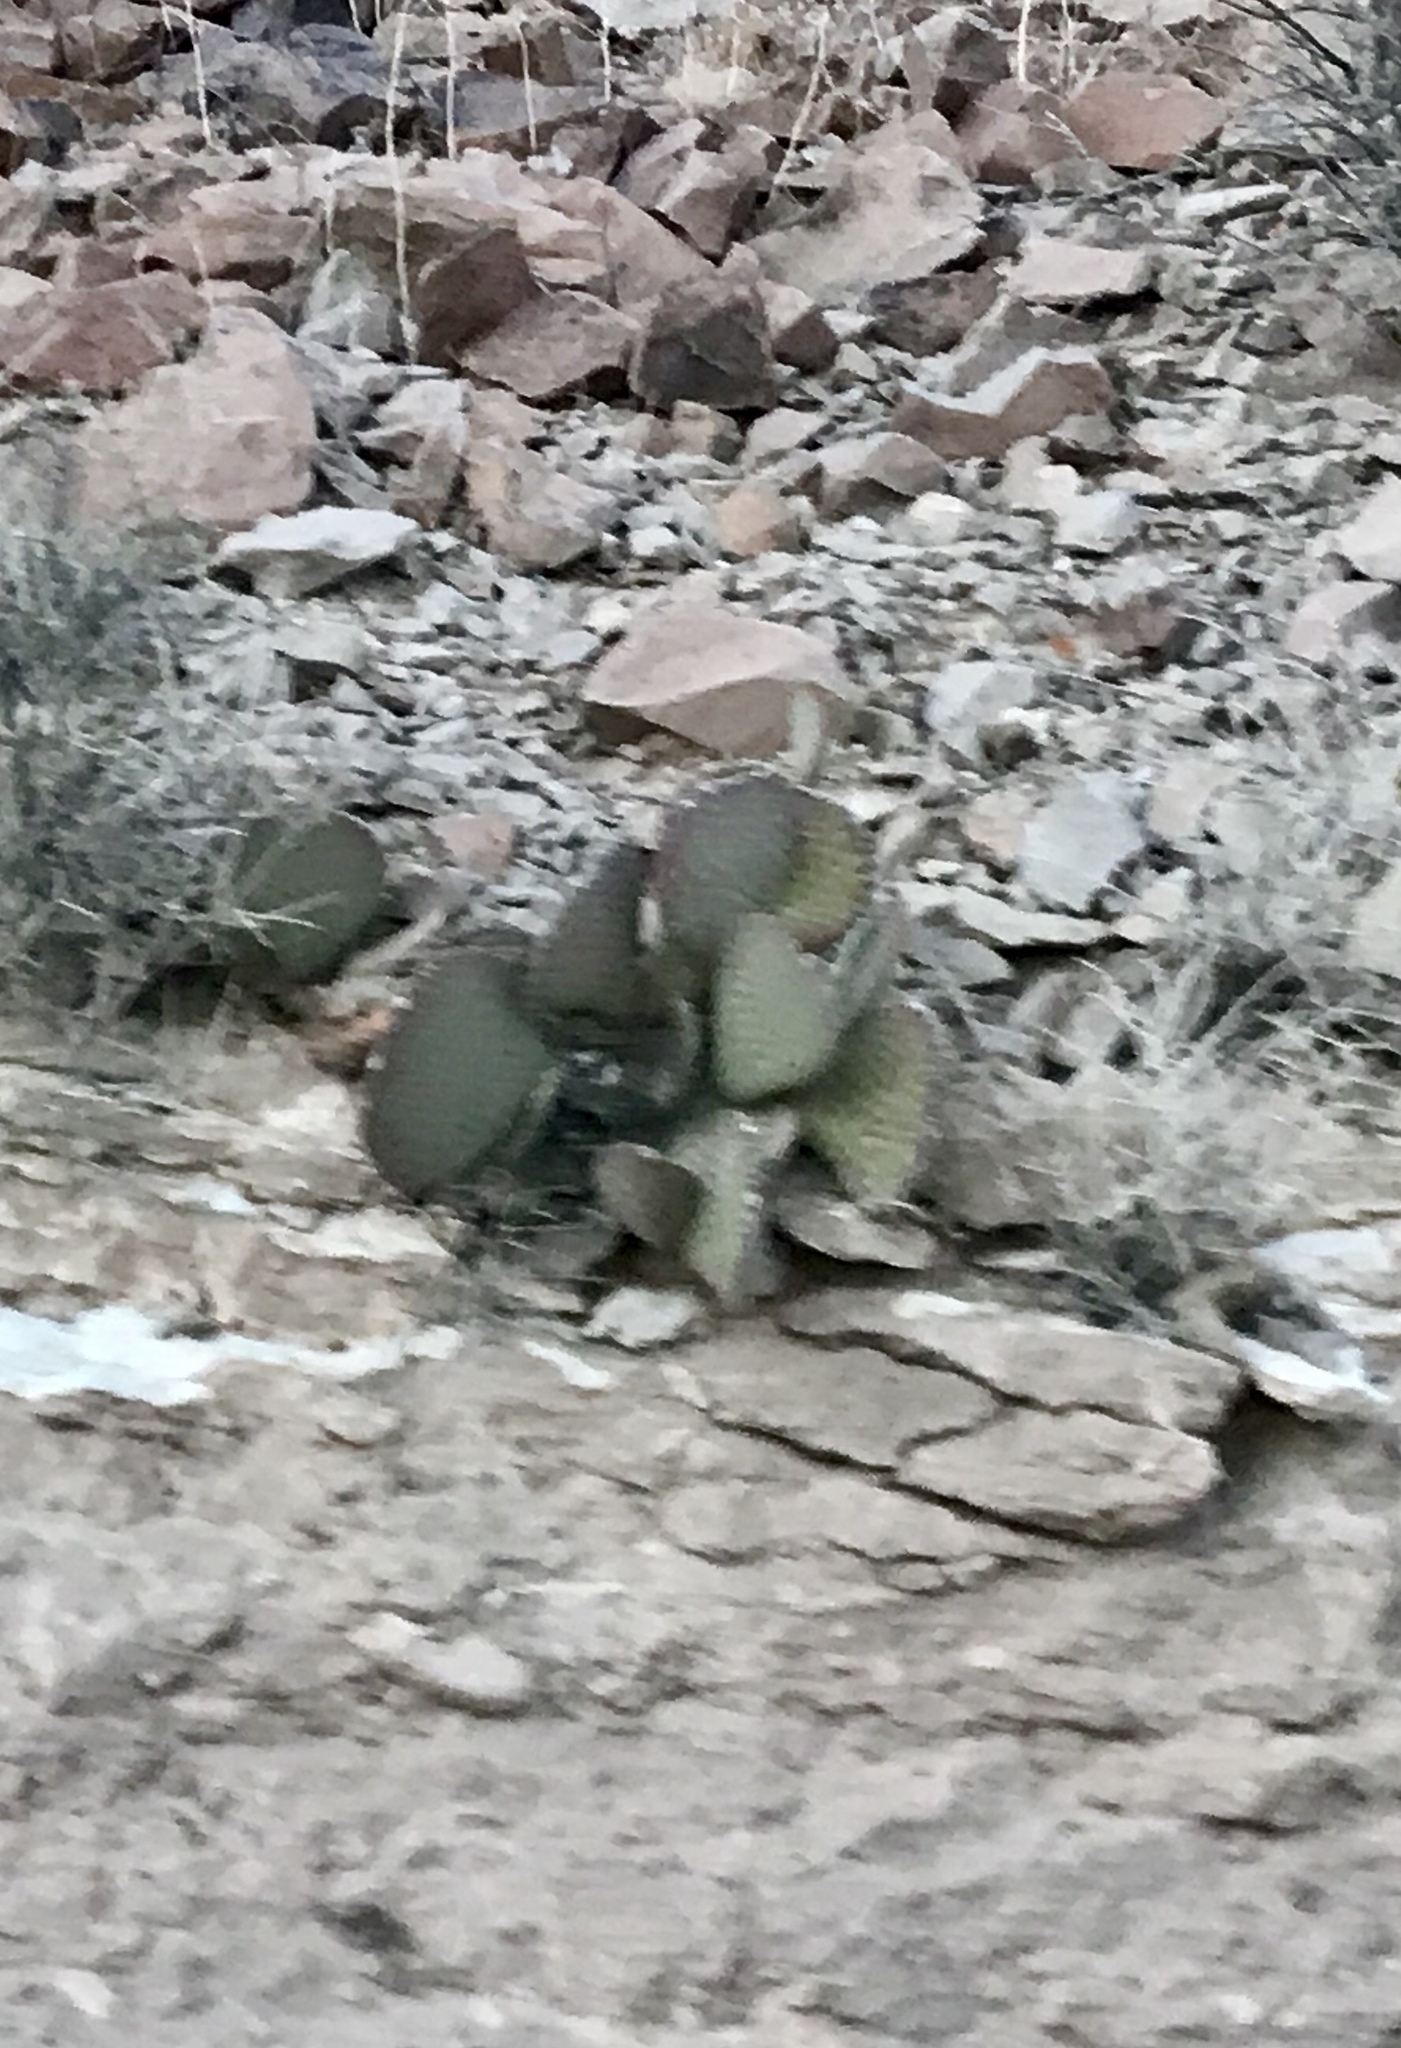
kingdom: Plantae
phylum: Tracheophyta
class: Magnoliopsida
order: Caryophyllales
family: Cactaceae
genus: Opuntia
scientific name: Opuntia basilaris
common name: Beavertail prickly-pear
